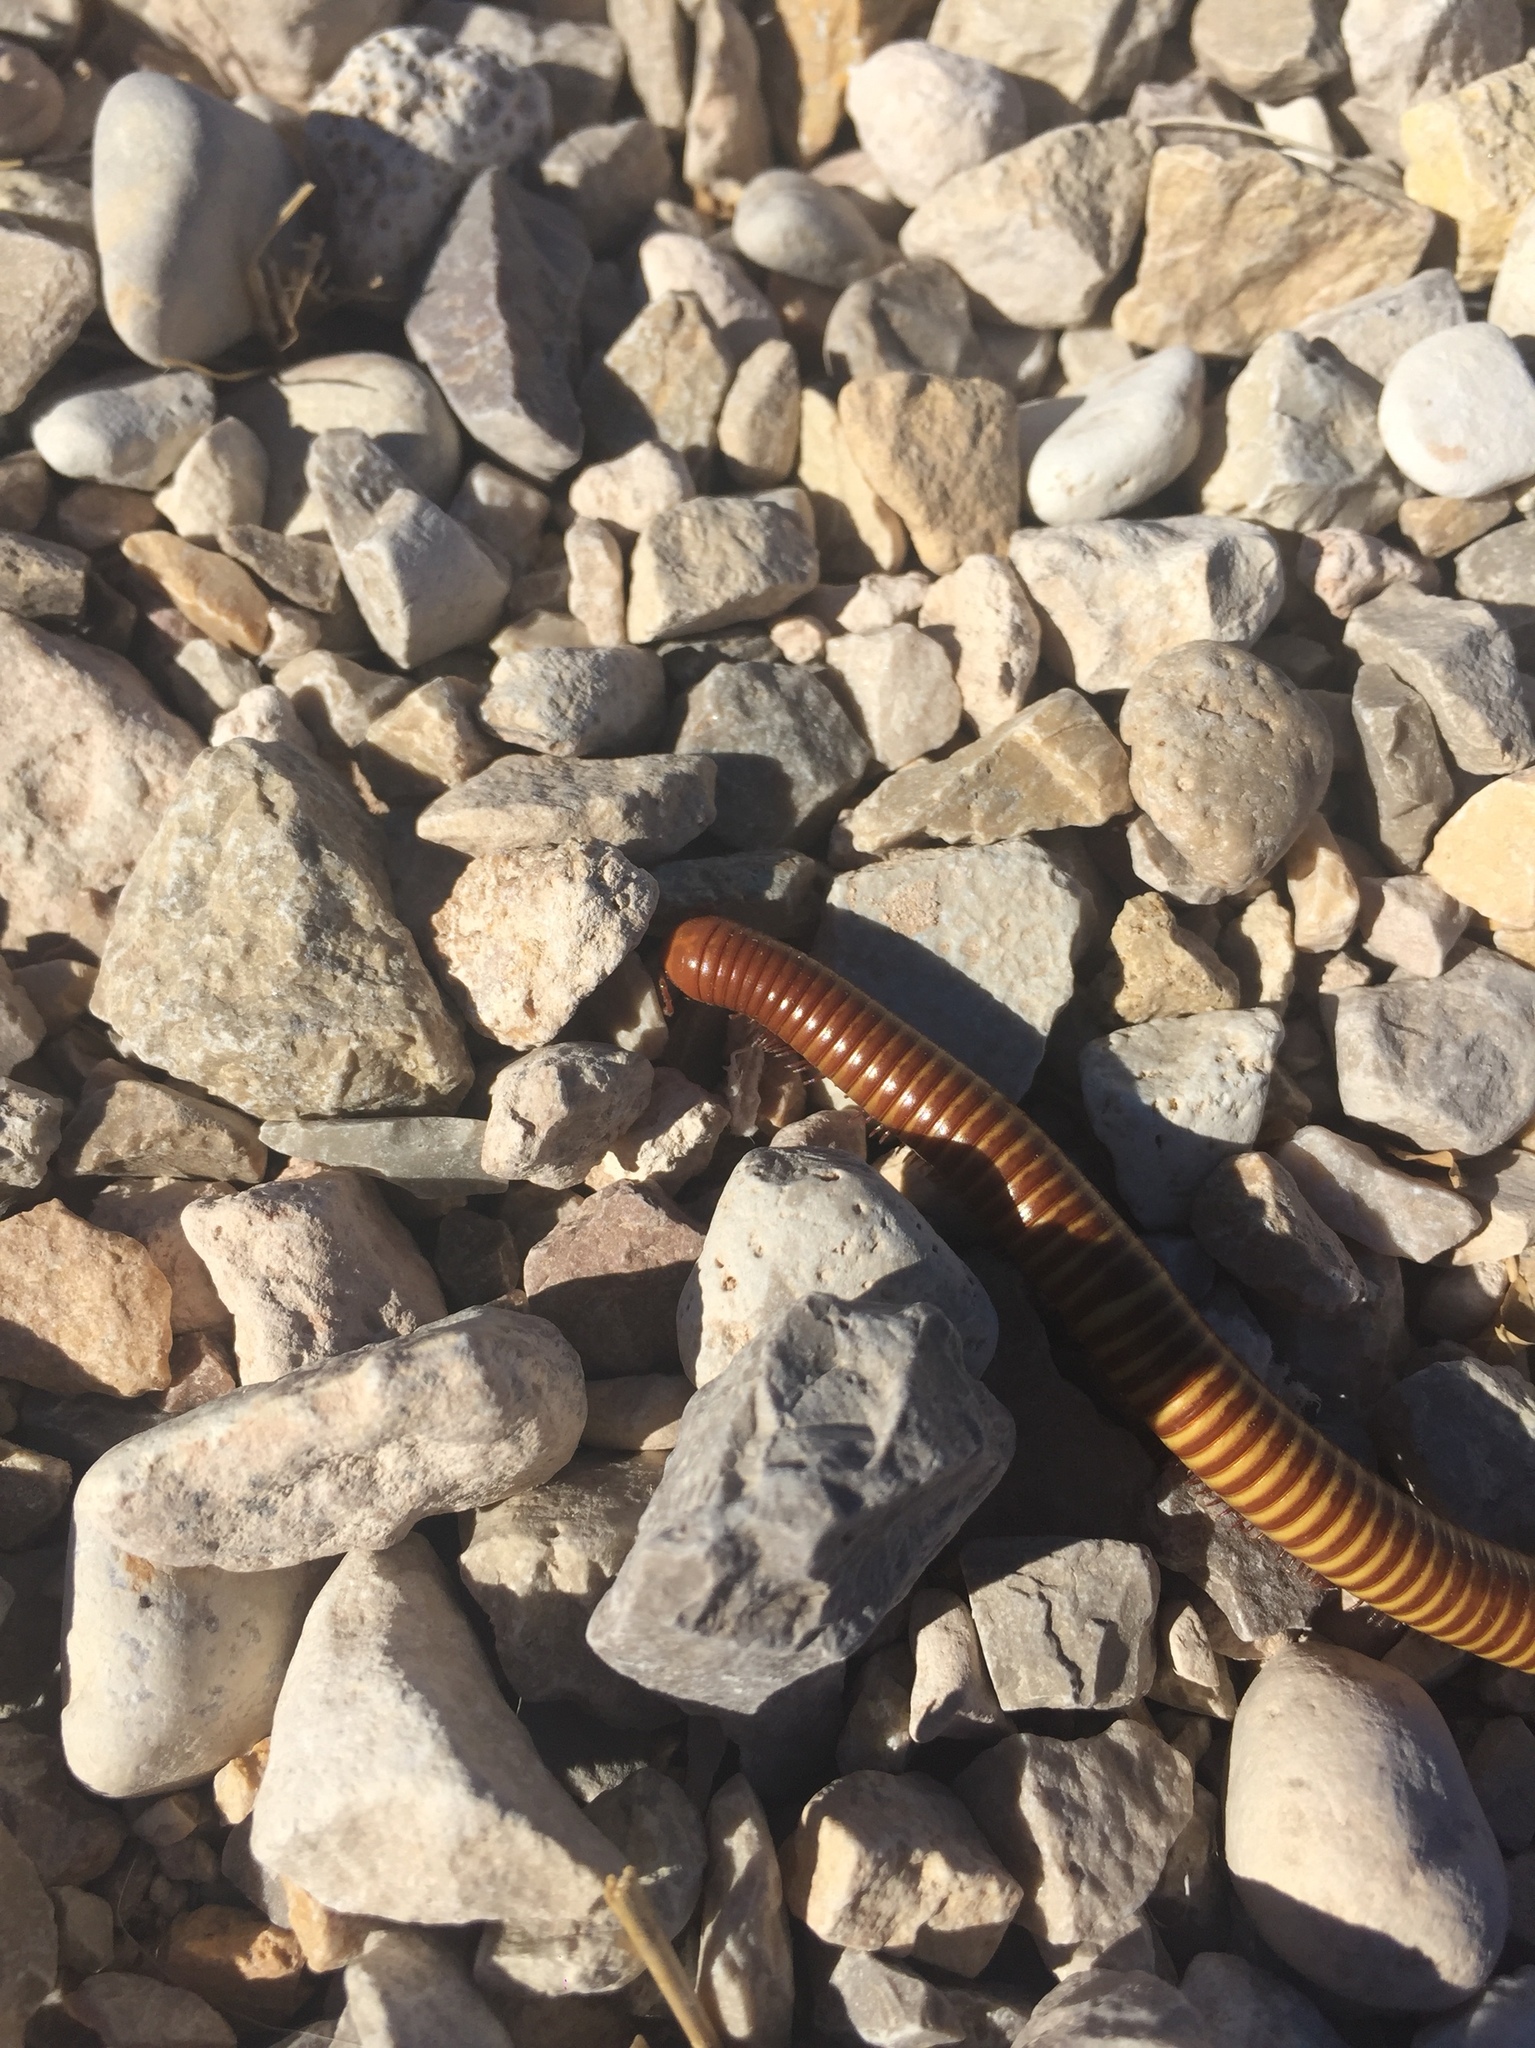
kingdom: Animalia
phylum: Arthropoda
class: Diplopoda
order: Spirostreptida
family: Spirostreptidae
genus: Orthoporus
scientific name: Orthoporus ornatus
